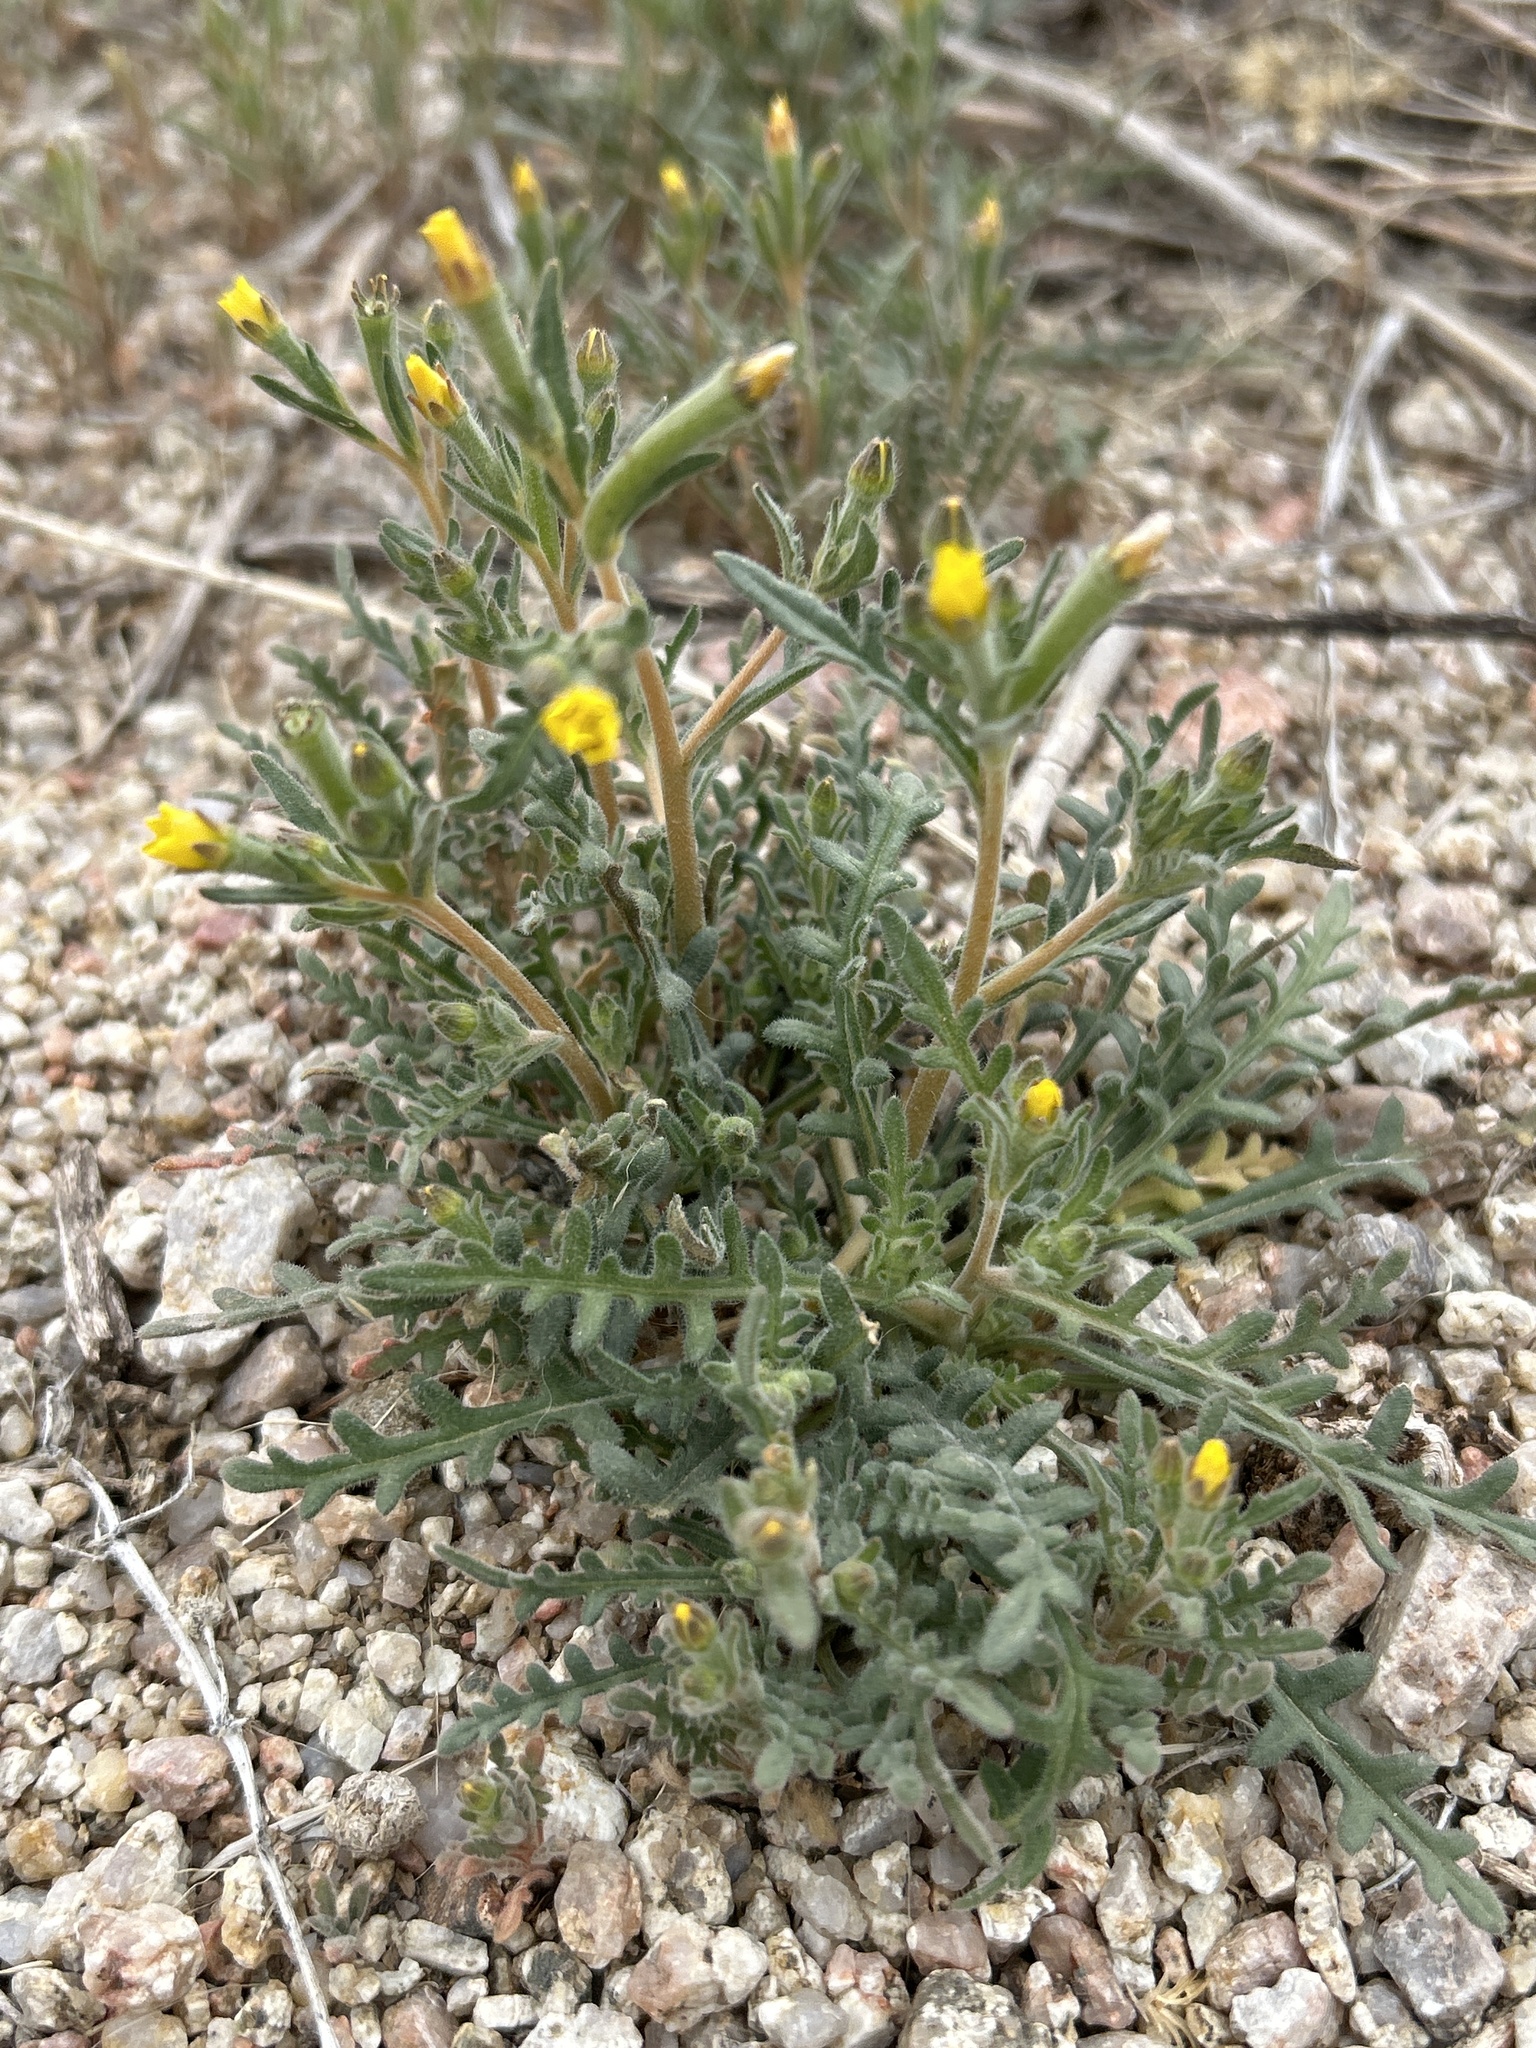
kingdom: Plantae
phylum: Tracheophyta
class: Magnoliopsida
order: Cornales
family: Loasaceae
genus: Mentzelia
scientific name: Mentzelia albicaulis
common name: White-stem blazingstar
